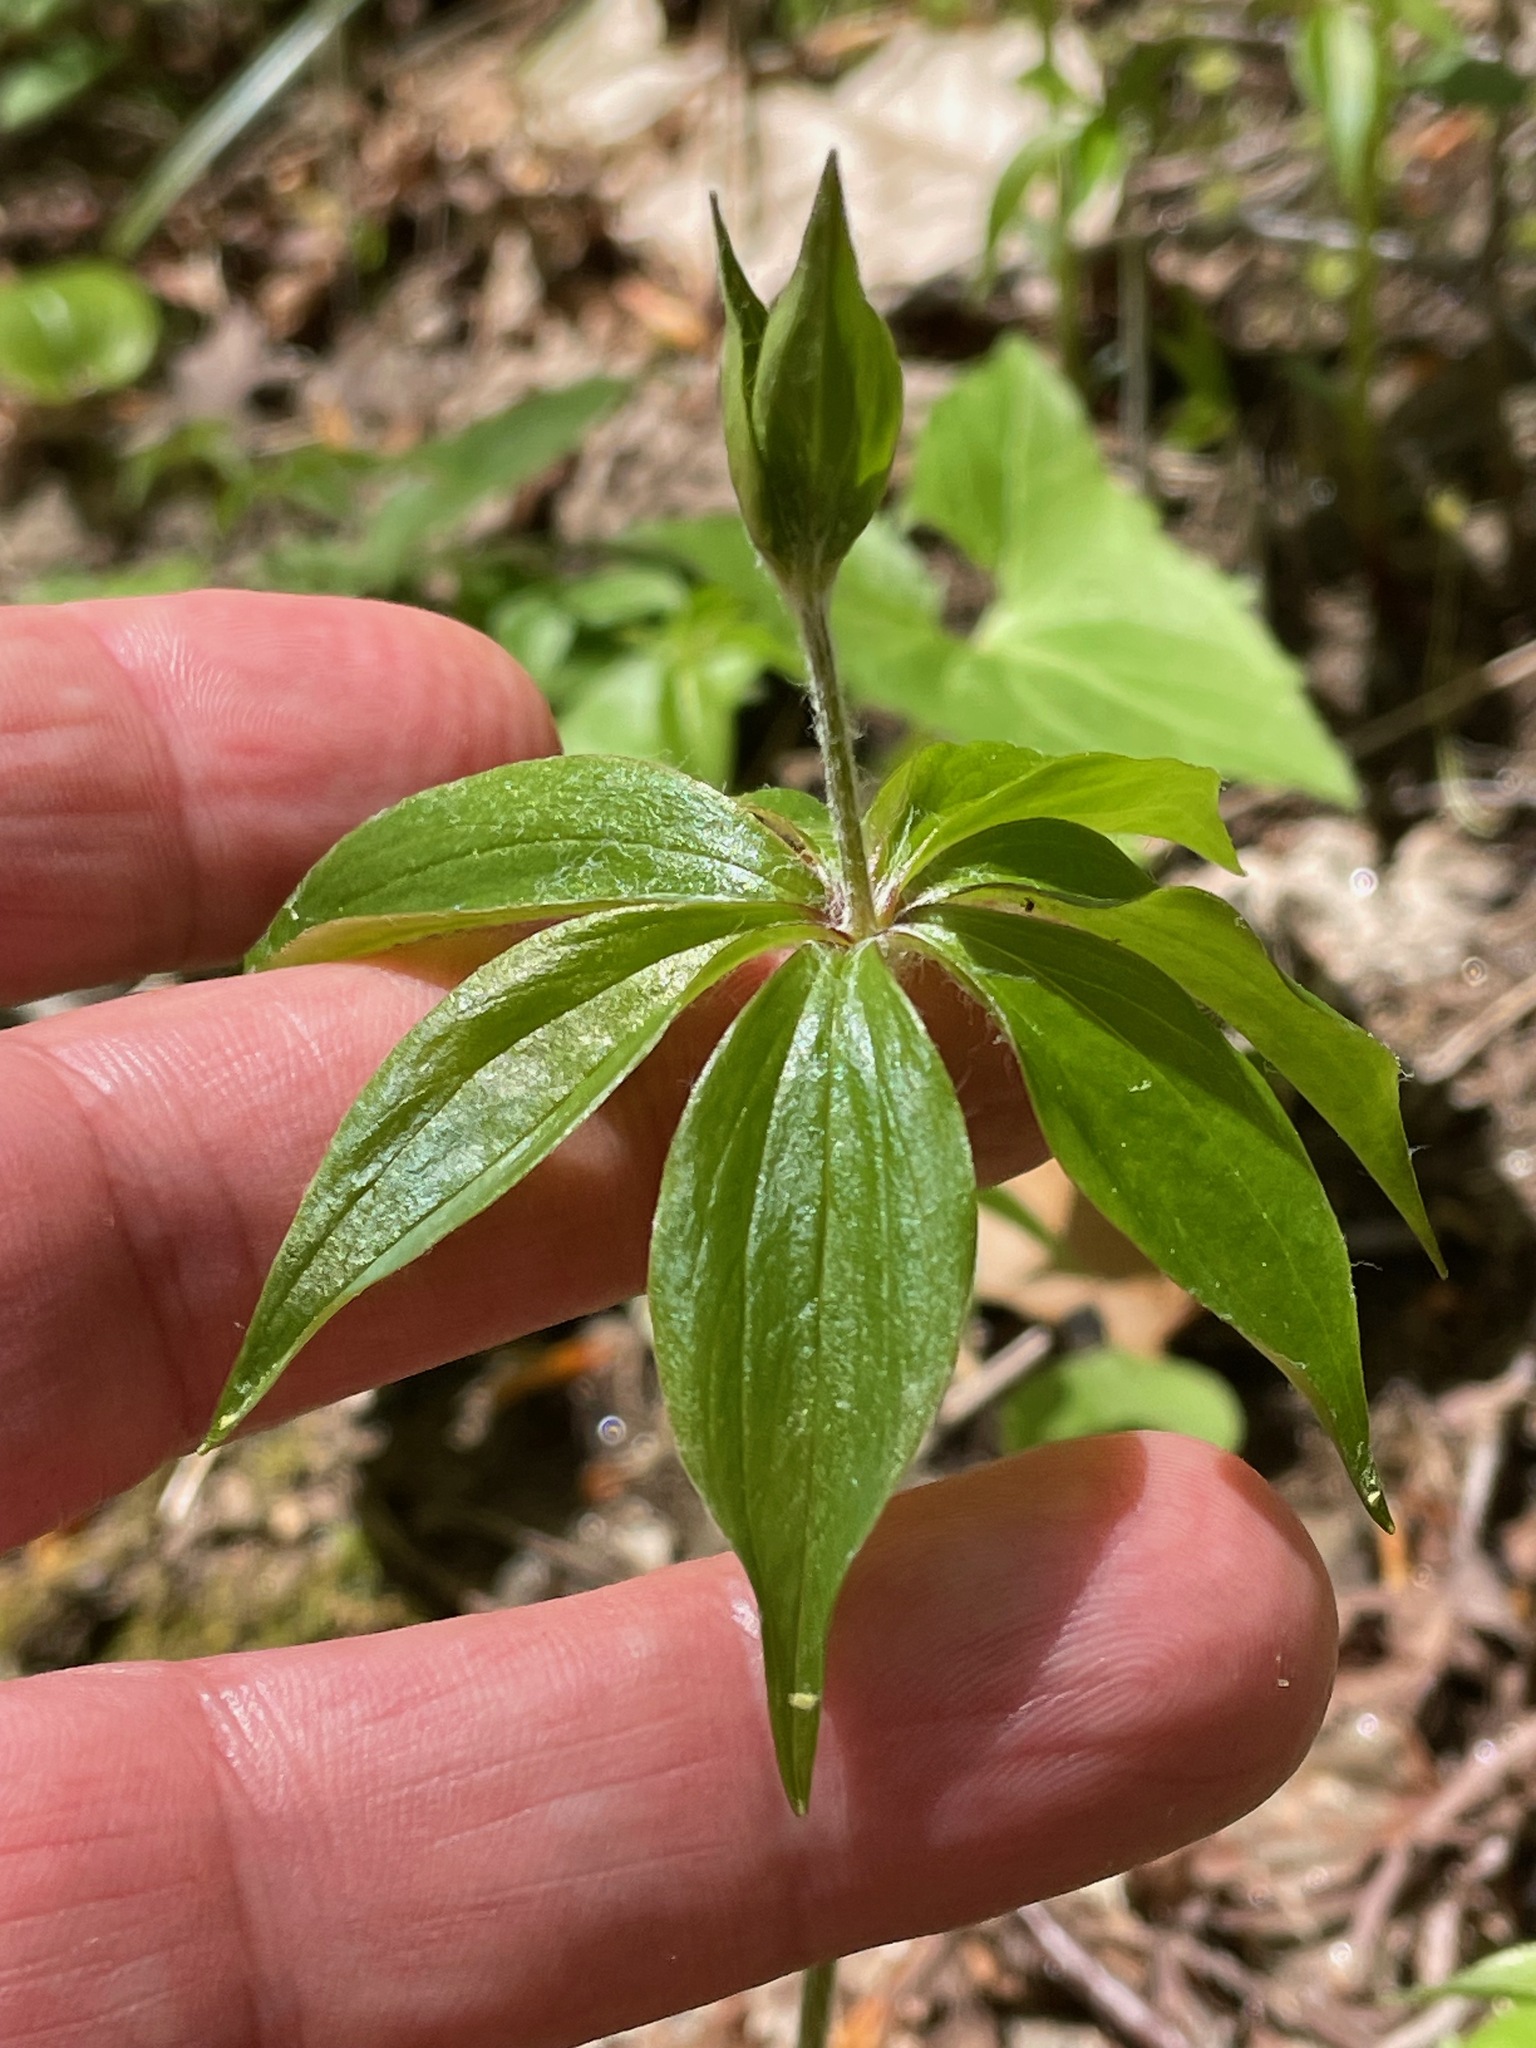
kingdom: Plantae
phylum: Tracheophyta
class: Liliopsida
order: Liliales
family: Liliaceae
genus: Medeola
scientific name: Medeola virginiana
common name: Indian cucumber-root
